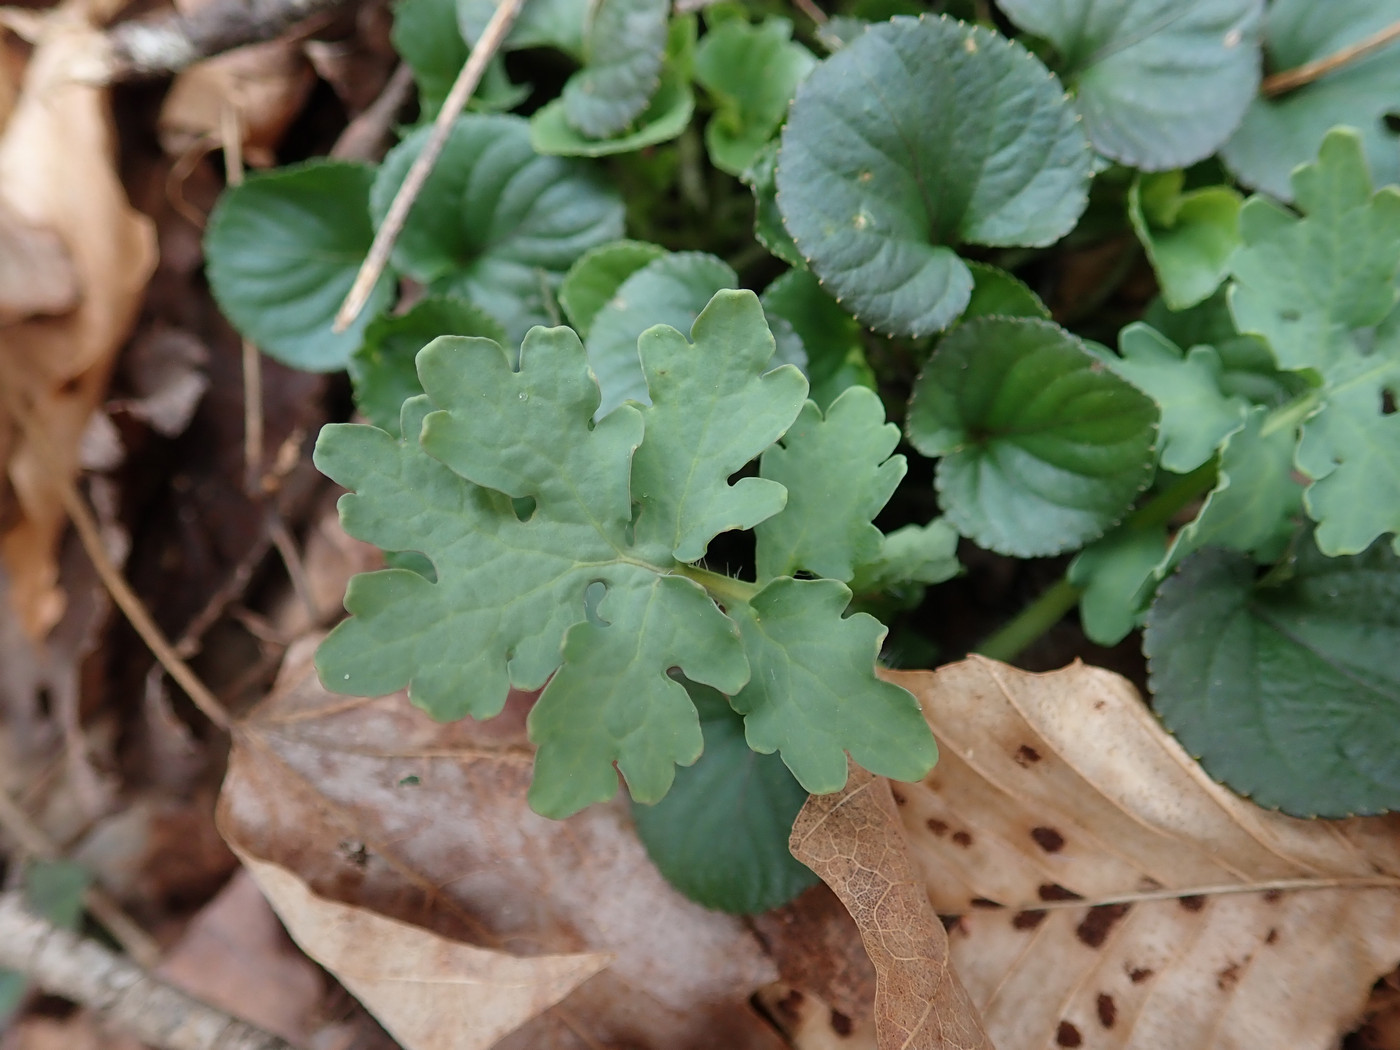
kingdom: Plantae
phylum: Tracheophyta
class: Magnoliopsida
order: Ranunculales
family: Papaveraceae
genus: Stylophorum
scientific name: Stylophorum diphyllum
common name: Celandine poppy
